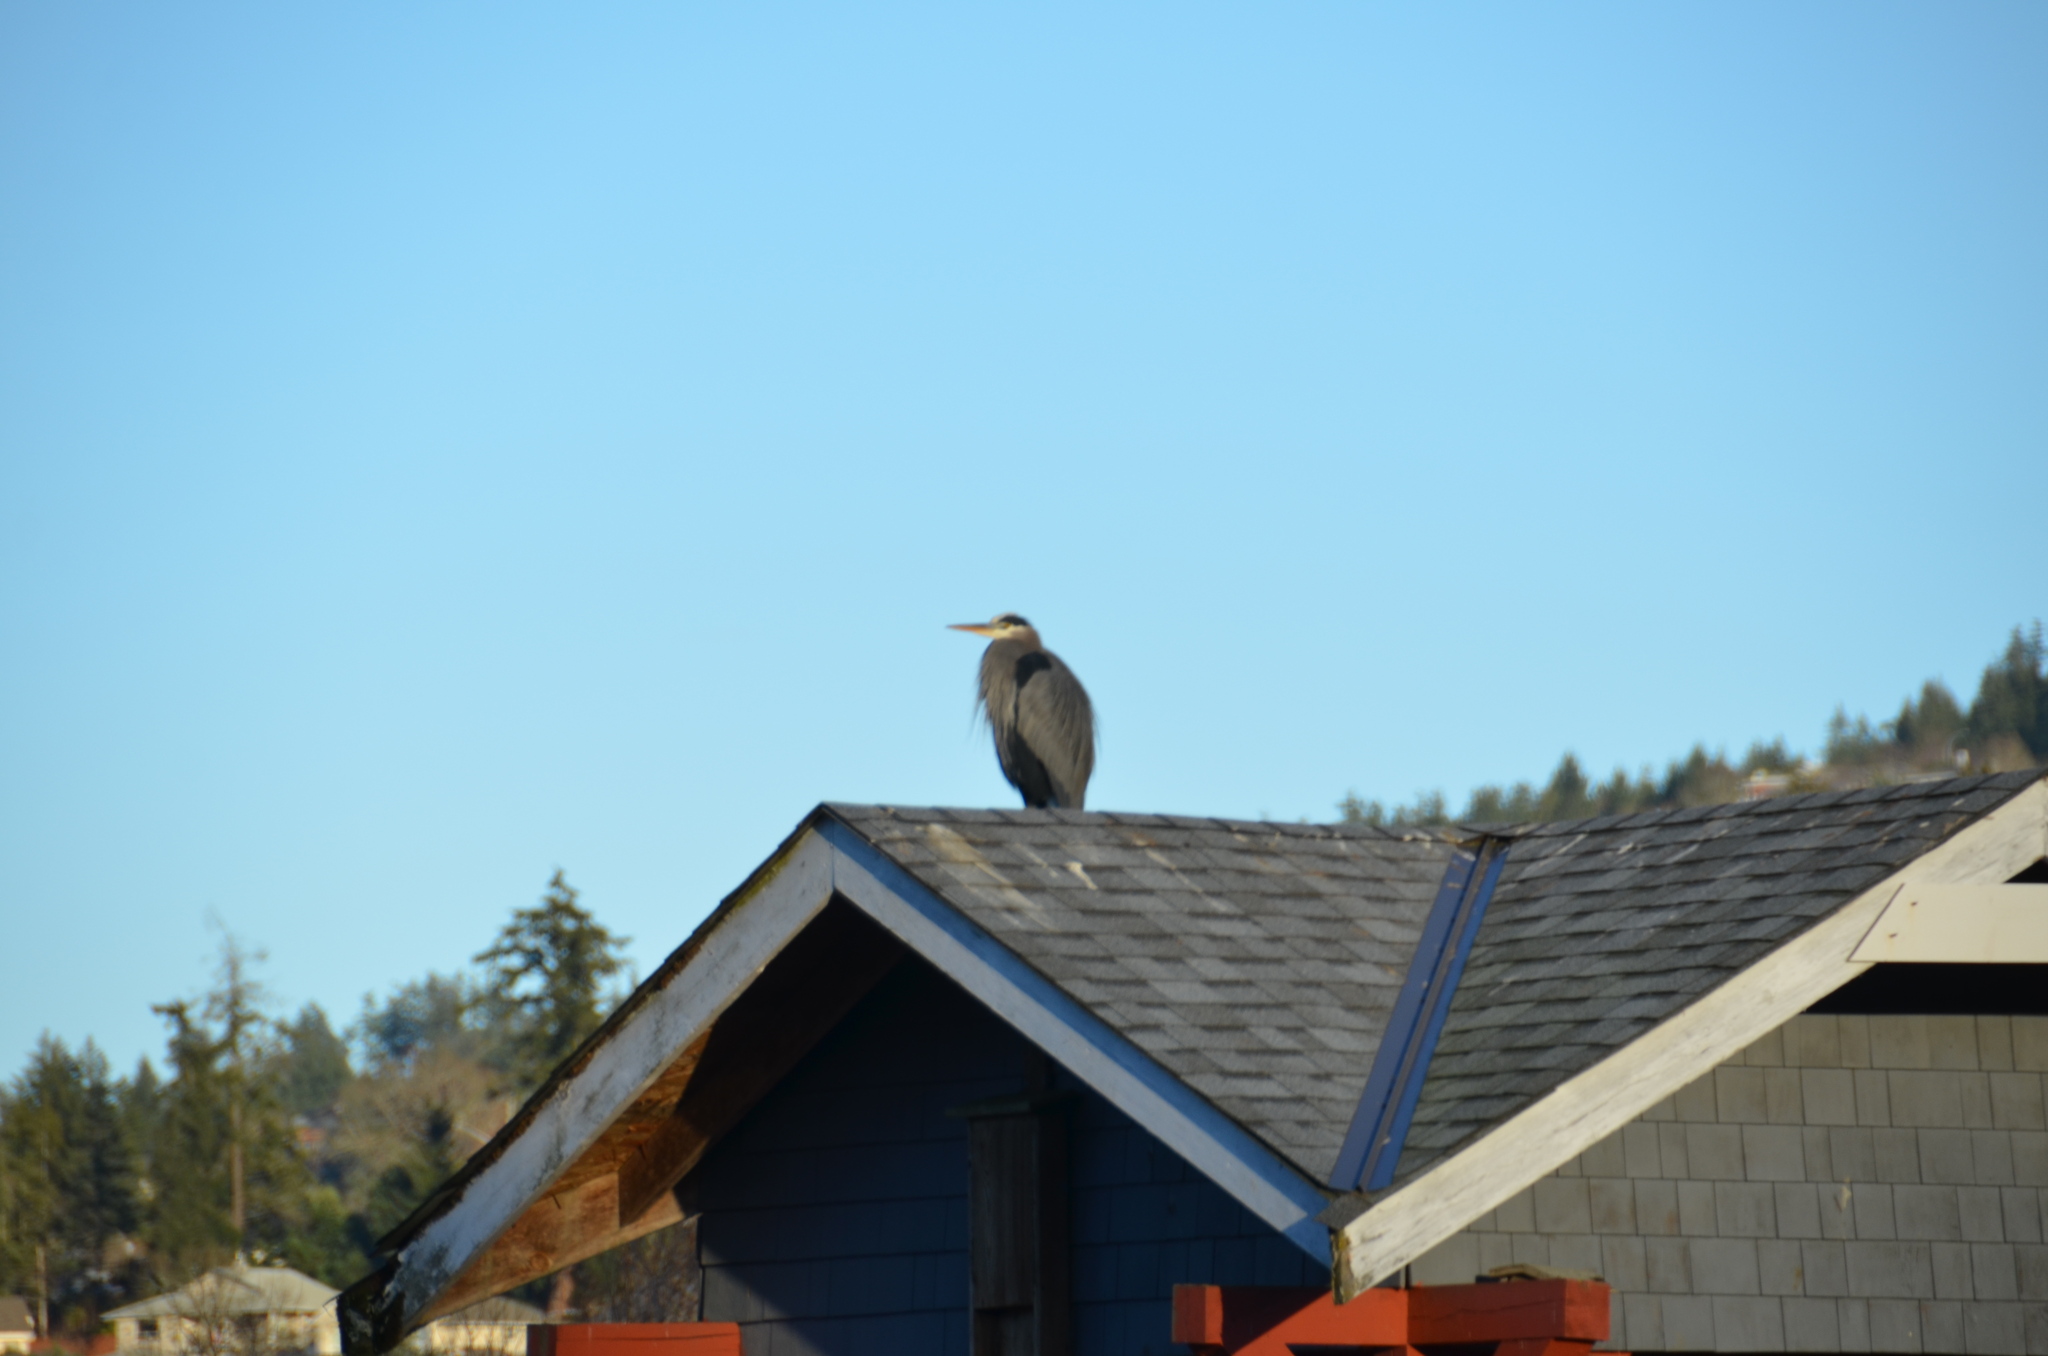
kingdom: Animalia
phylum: Chordata
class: Aves
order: Pelecaniformes
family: Ardeidae
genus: Ardea
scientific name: Ardea herodias
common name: Great blue heron
